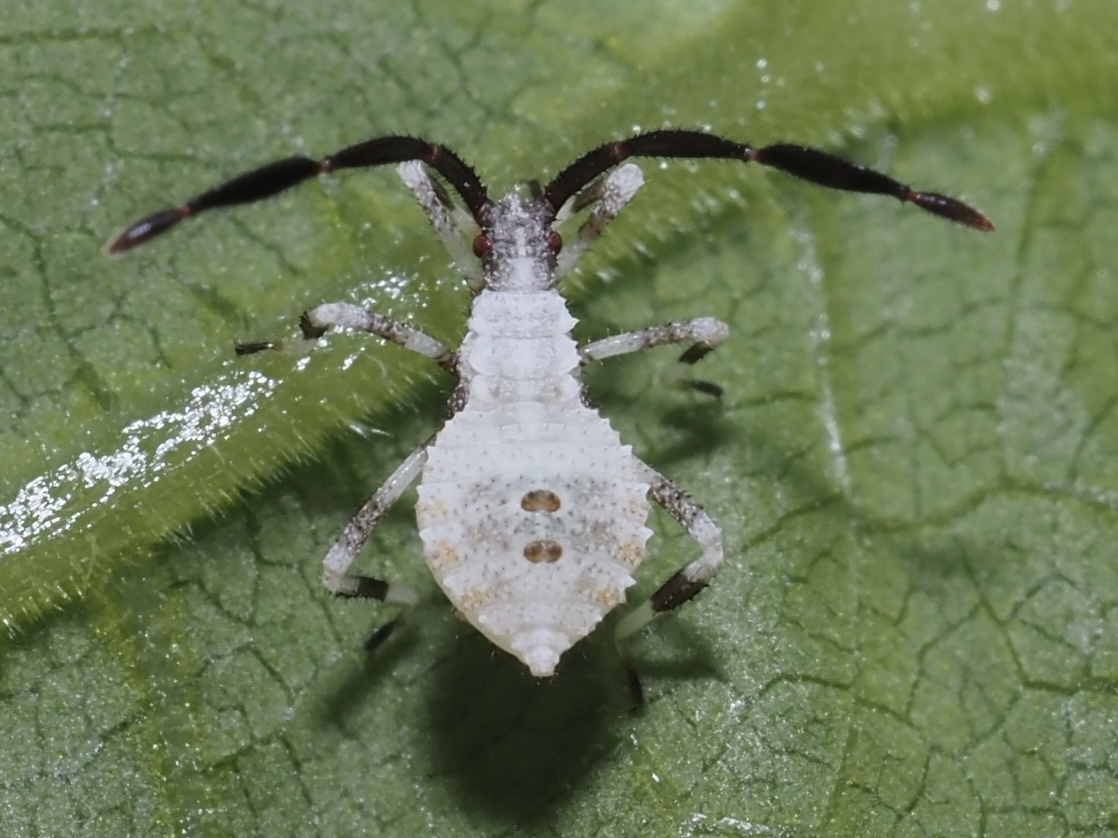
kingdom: Animalia
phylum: Arthropoda
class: Insecta
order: Hemiptera
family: Coreidae
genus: Anasa
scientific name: Anasa armigera
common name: Horned squash bug
